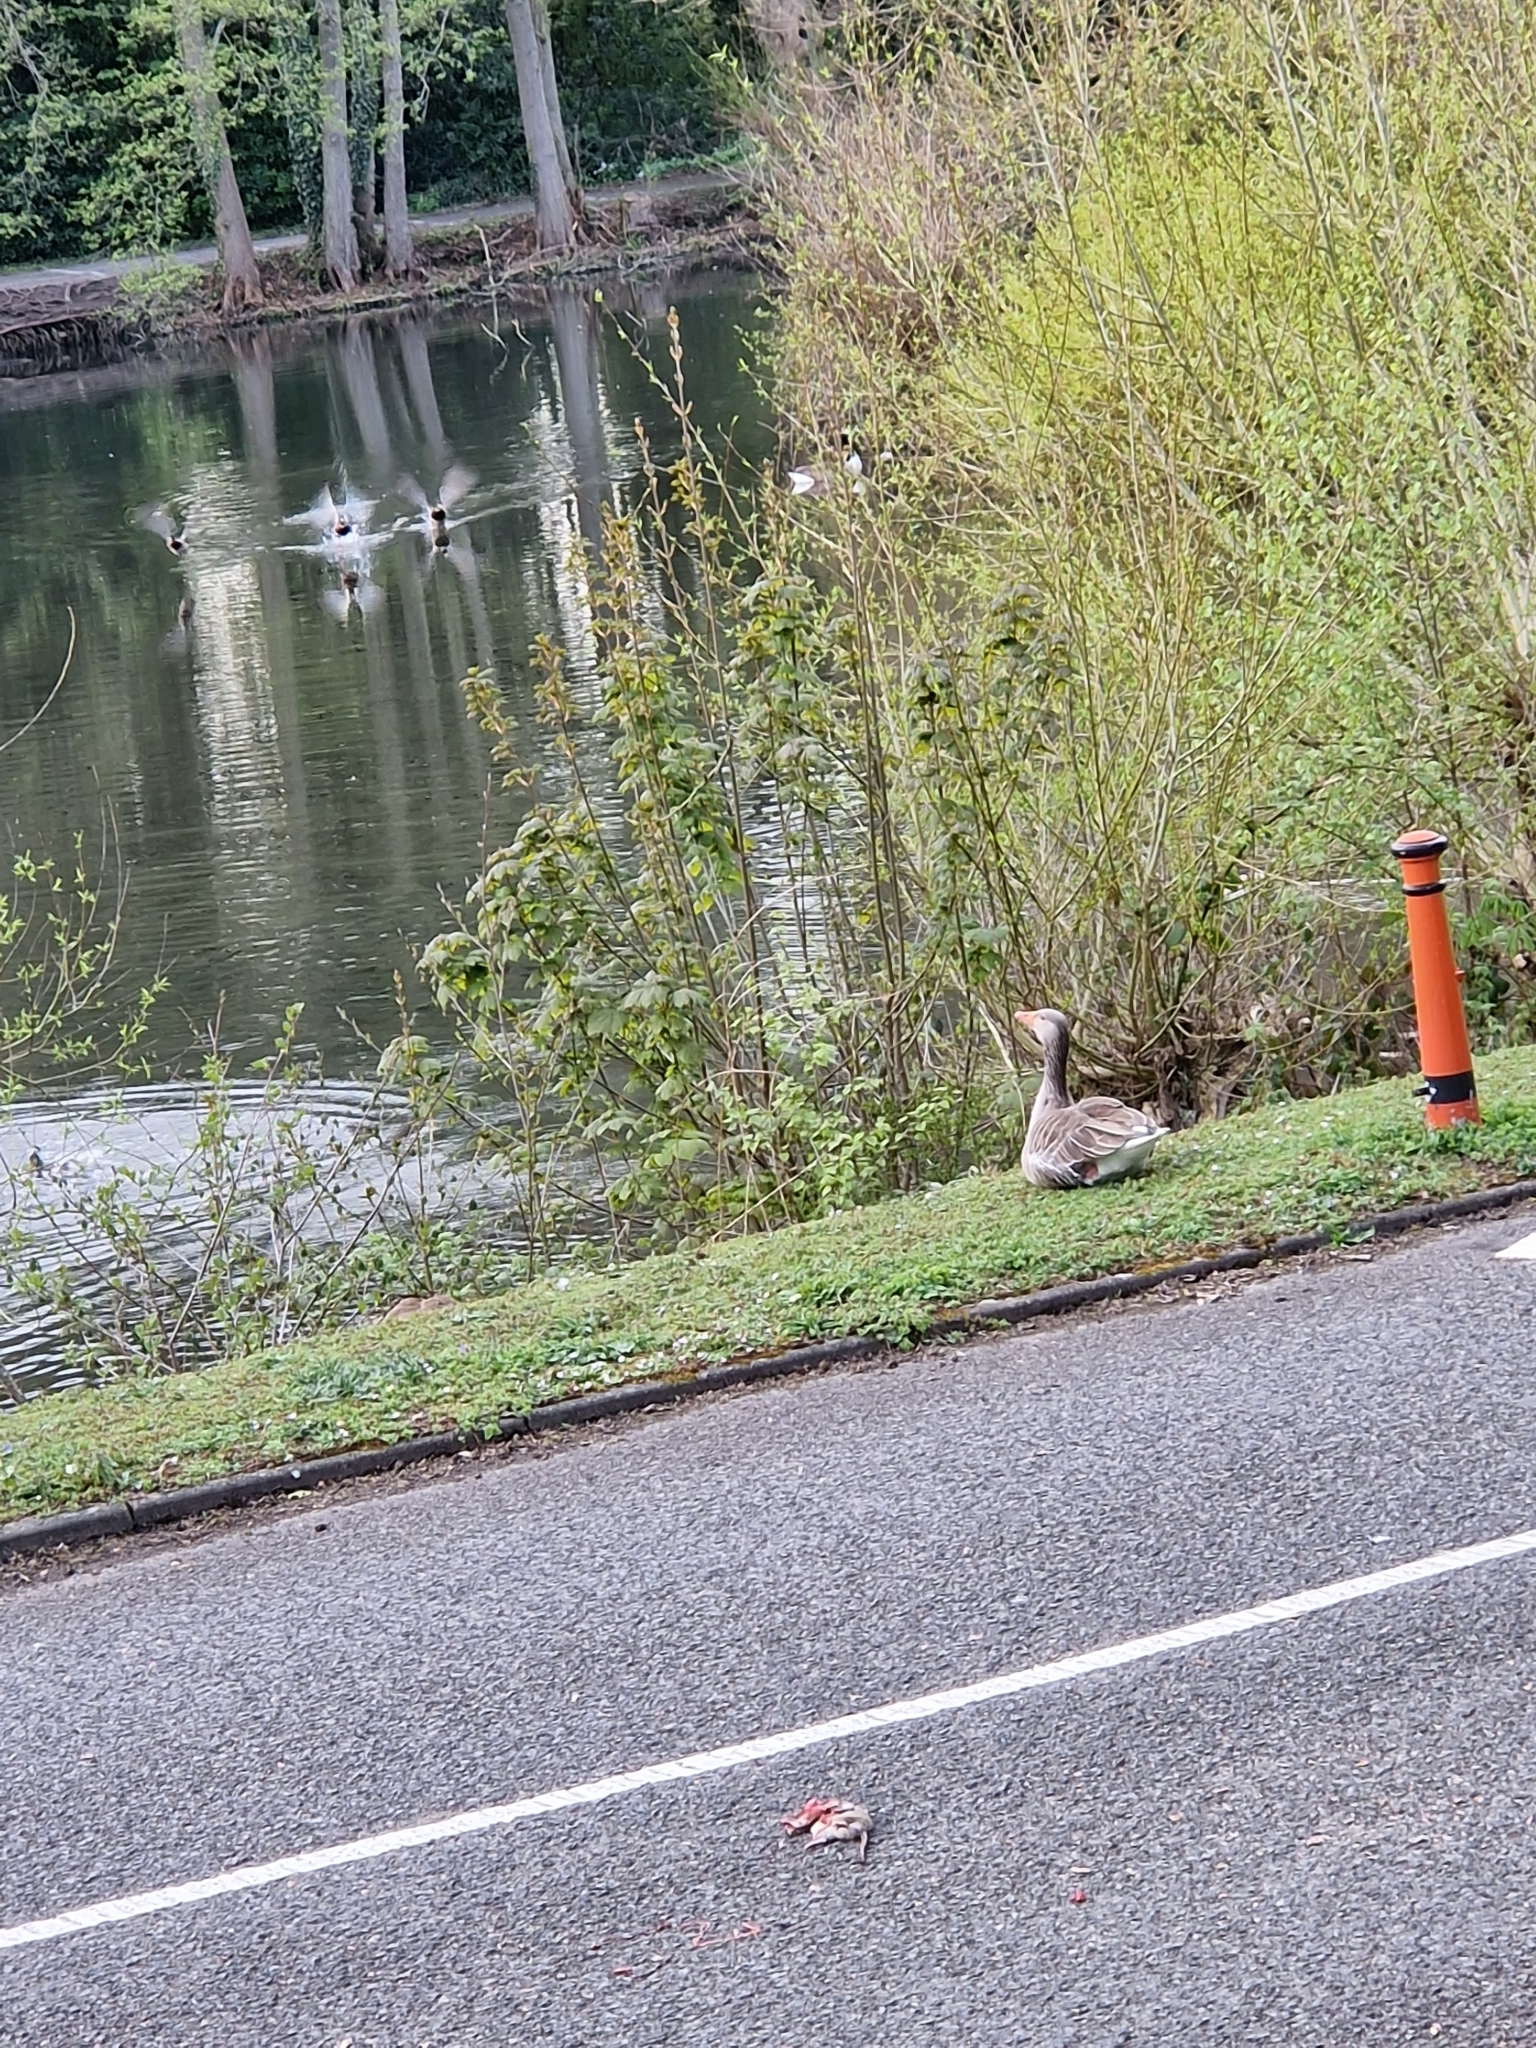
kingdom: Animalia
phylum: Chordata
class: Aves
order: Anseriformes
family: Anatidae
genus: Anser
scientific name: Anser anser
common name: Greylag goose
